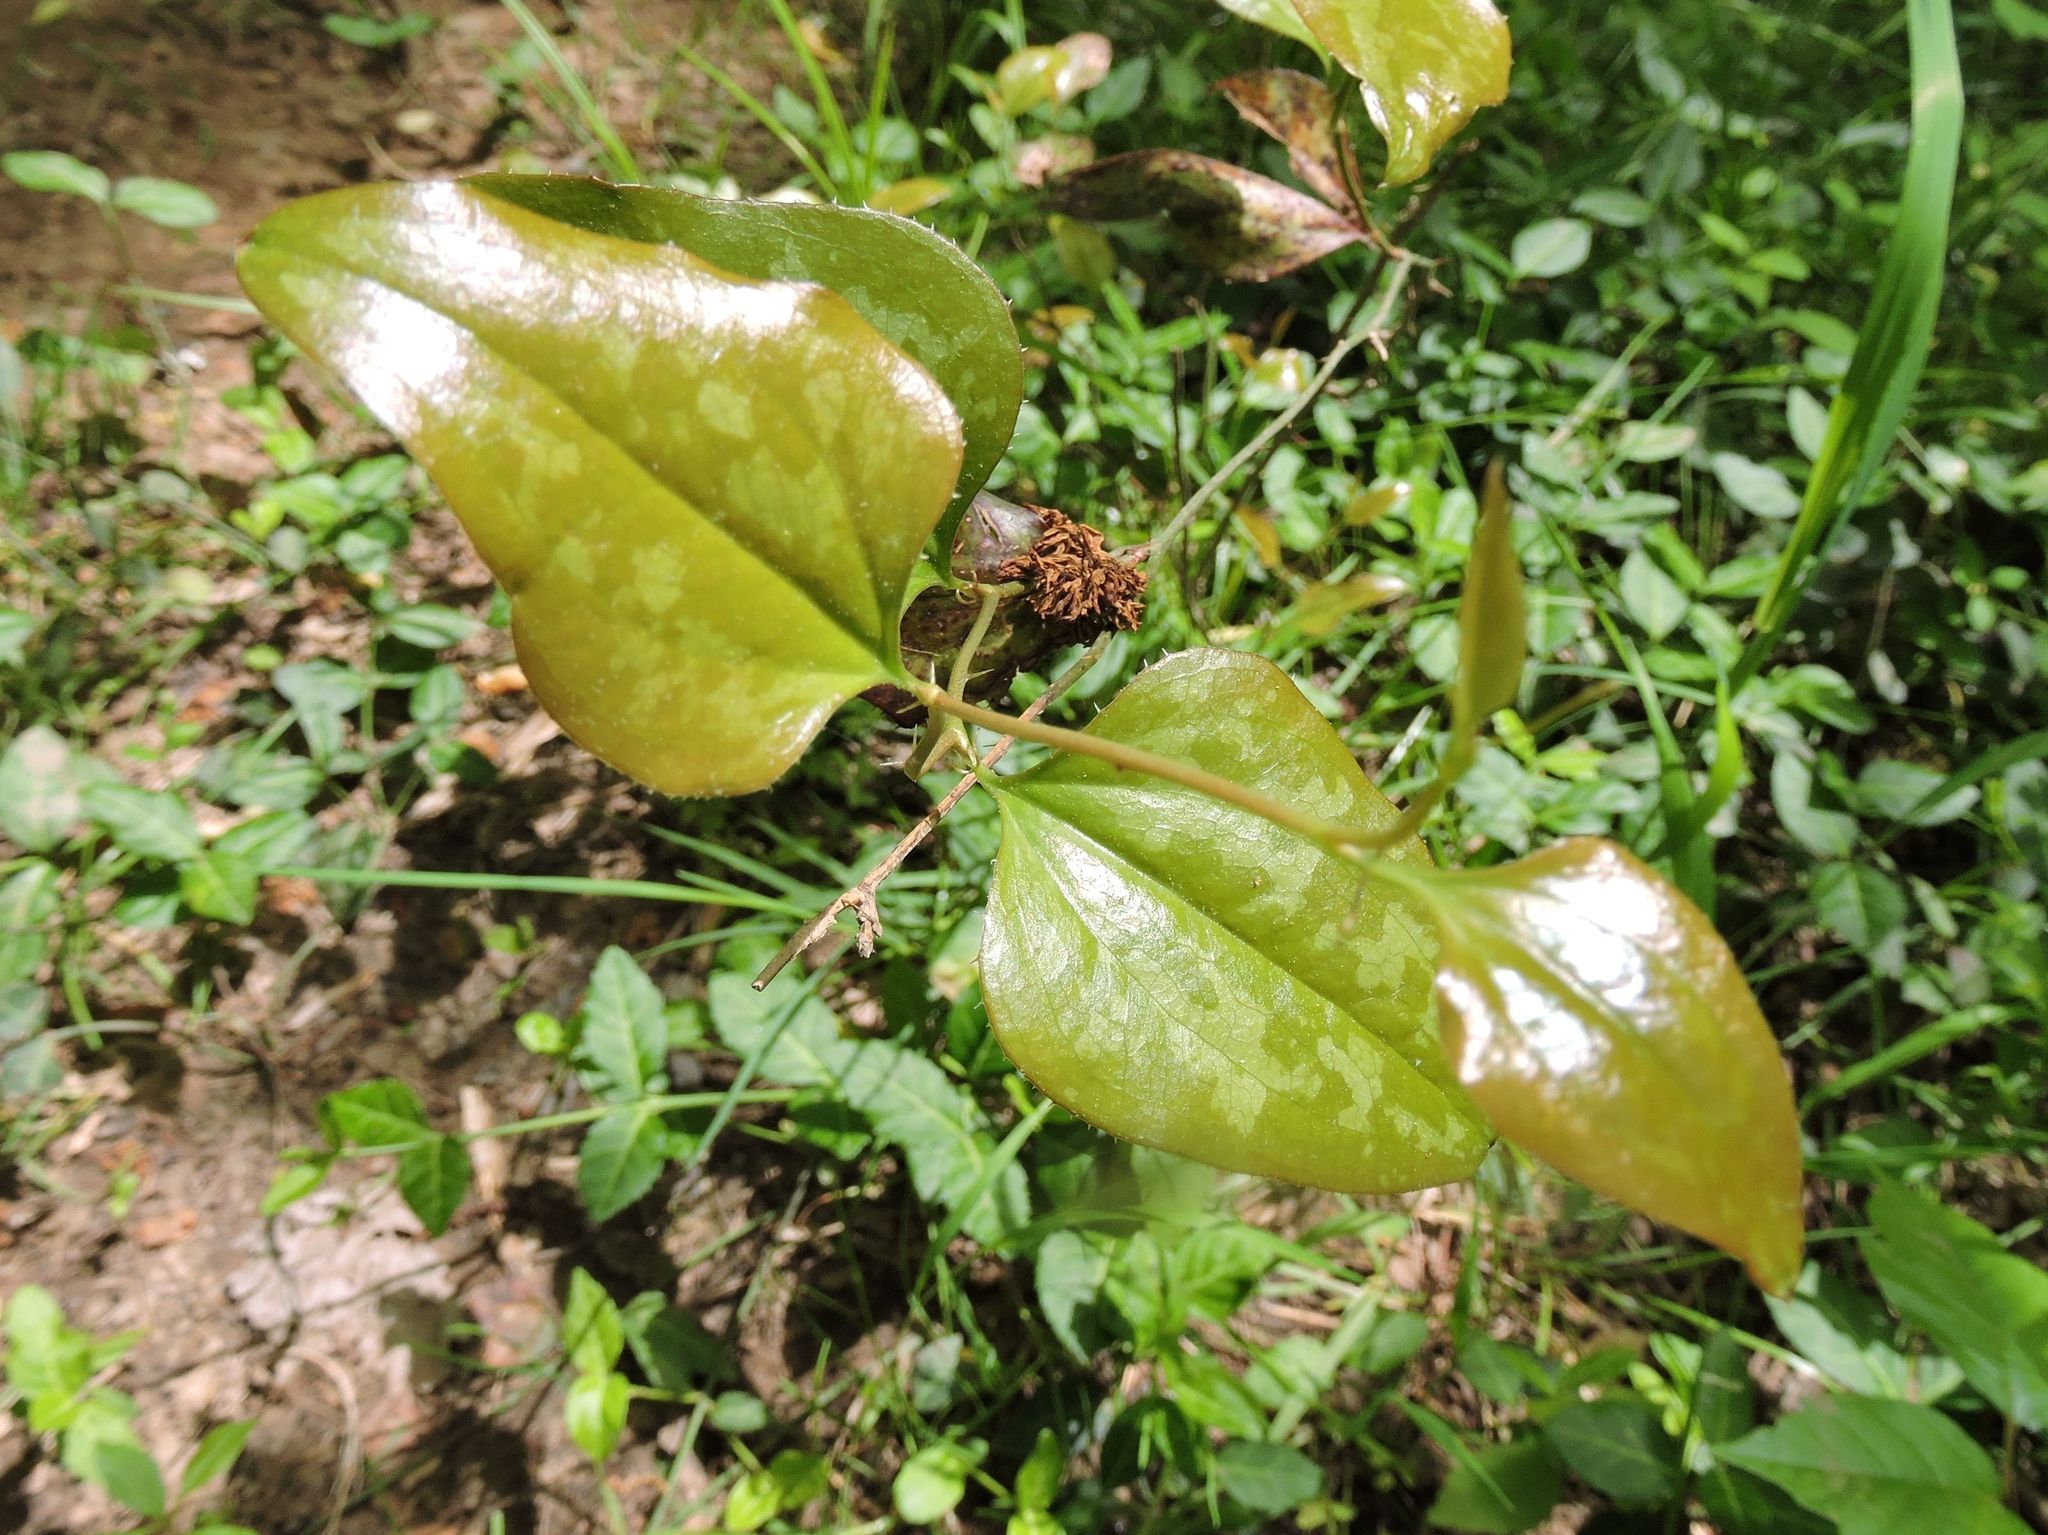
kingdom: Plantae
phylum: Tracheophyta
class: Liliopsida
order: Liliales
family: Smilacaceae
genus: Smilax
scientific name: Smilax bona-nox
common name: Catbrier
